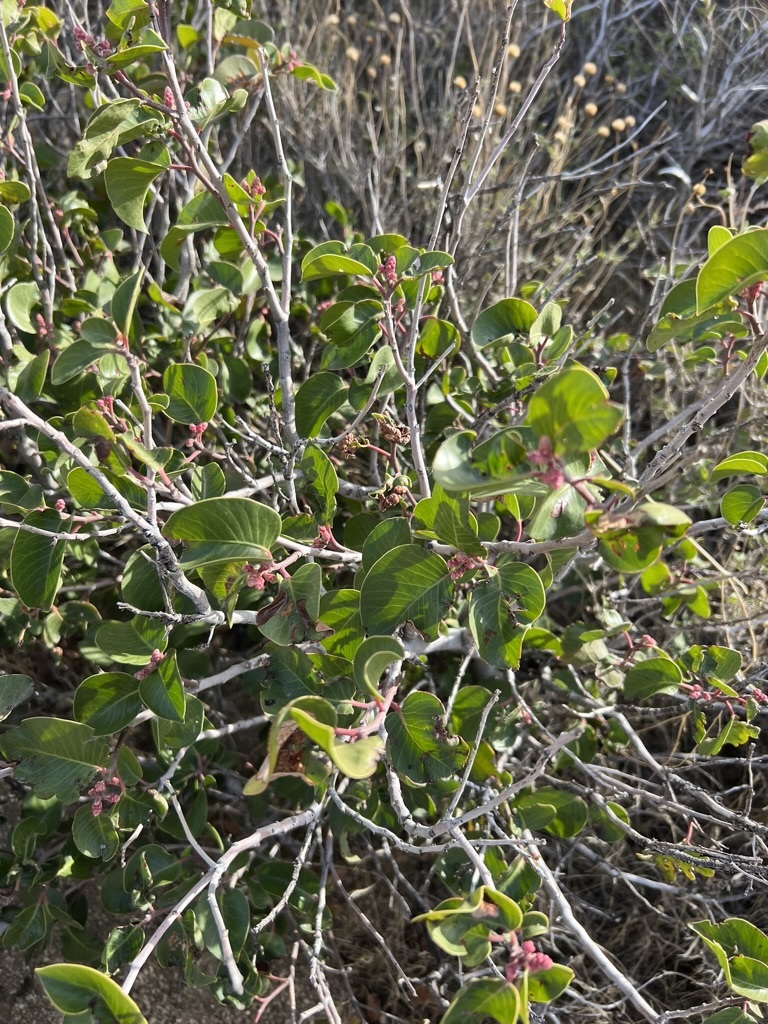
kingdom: Plantae
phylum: Tracheophyta
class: Magnoliopsida
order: Sapindales
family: Anacardiaceae
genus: Rhus
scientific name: Rhus ovata
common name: Sugar sumac
